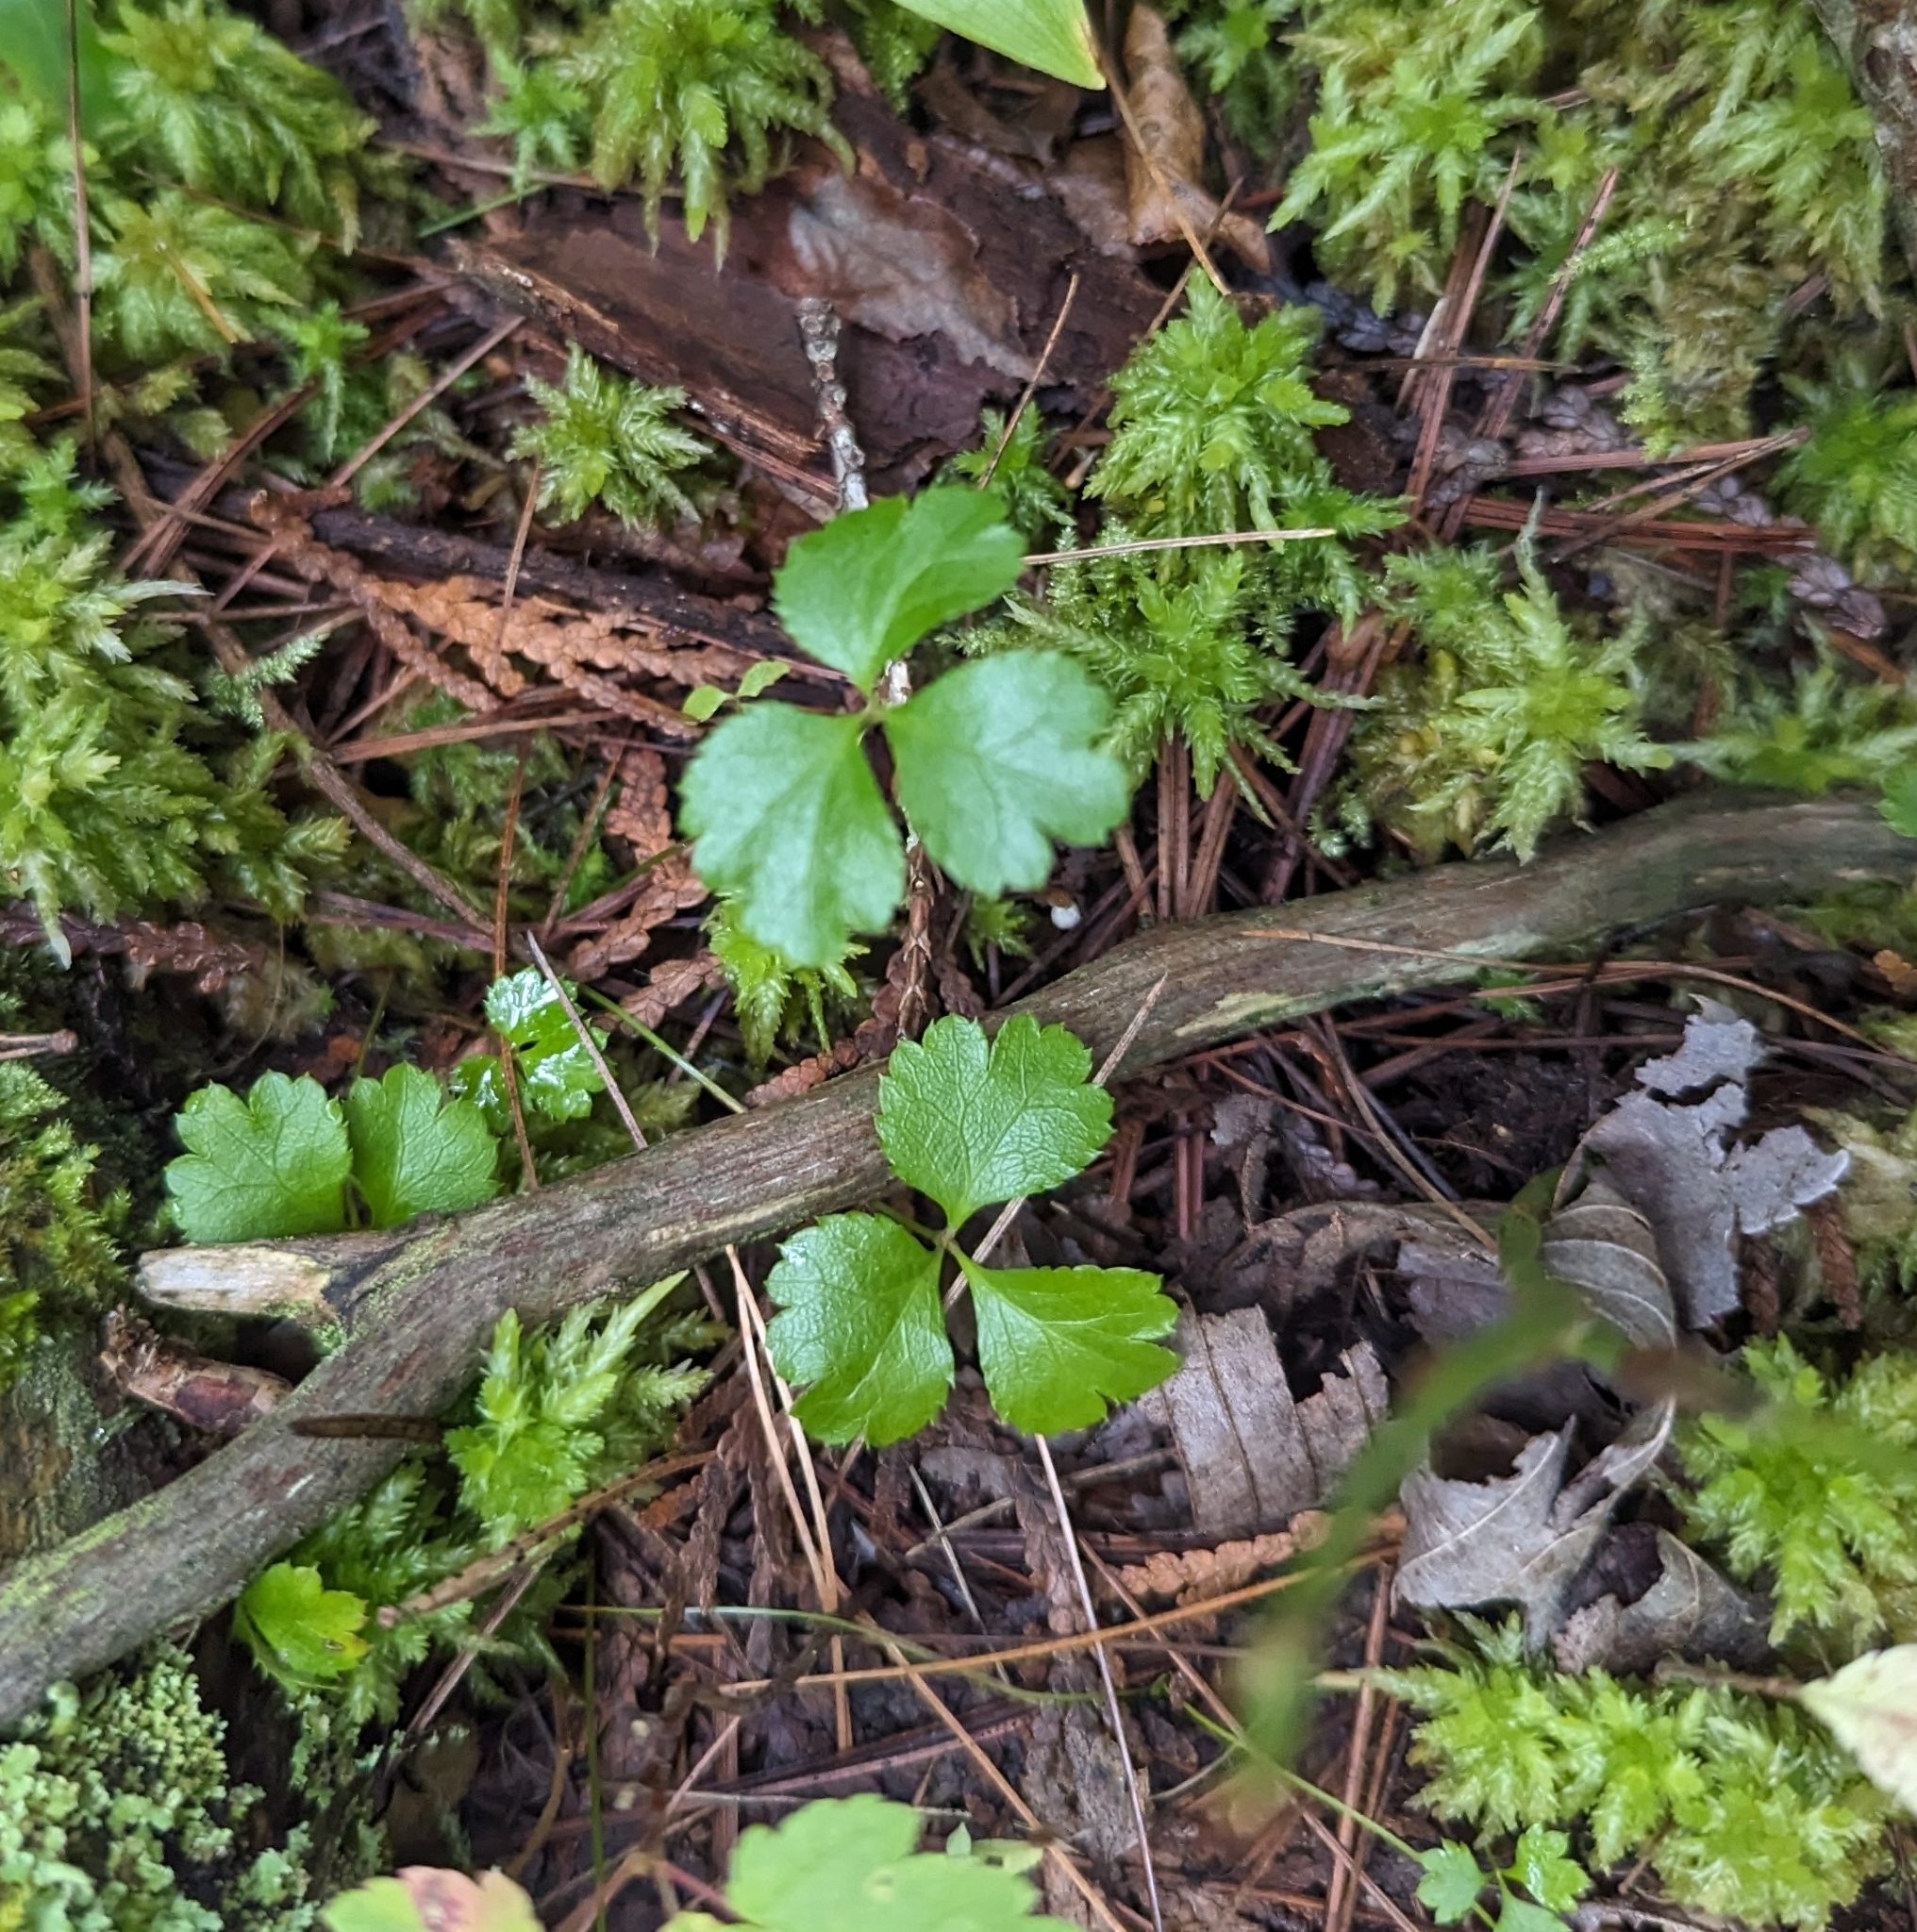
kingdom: Plantae
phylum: Tracheophyta
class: Magnoliopsida
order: Ranunculales
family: Ranunculaceae
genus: Coptis
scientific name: Coptis trifolia
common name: Canker-root
